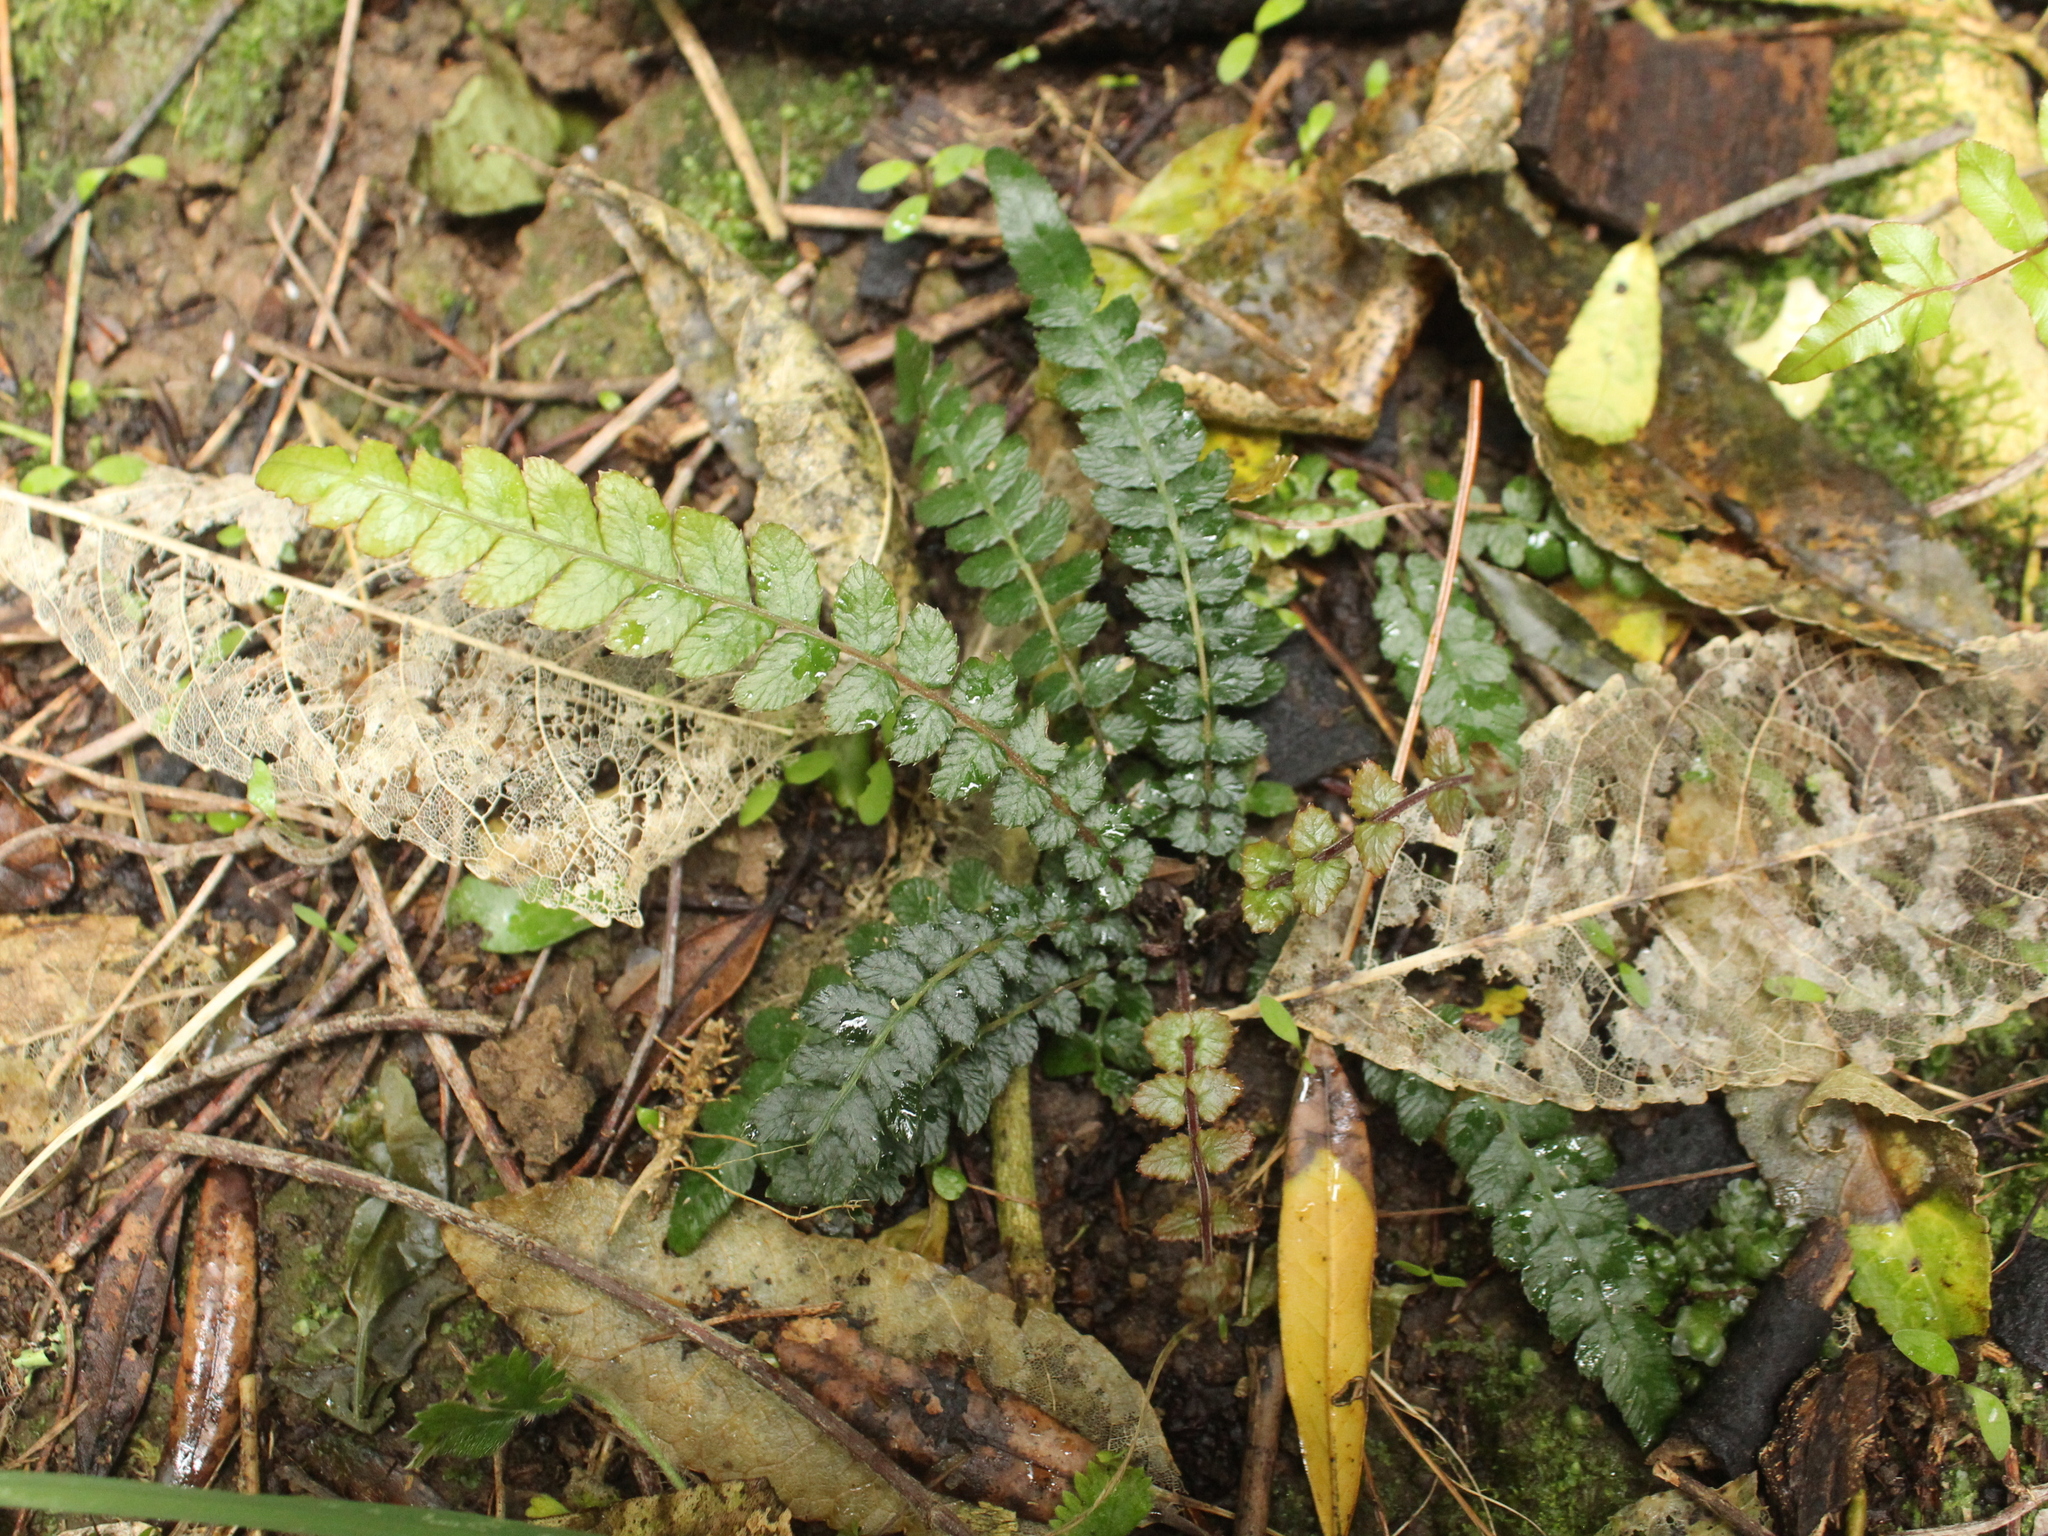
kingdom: Plantae
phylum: Tracheophyta
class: Polypodiopsida
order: Polypodiales
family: Blechnaceae
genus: Doodia
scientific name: Doodia australis
